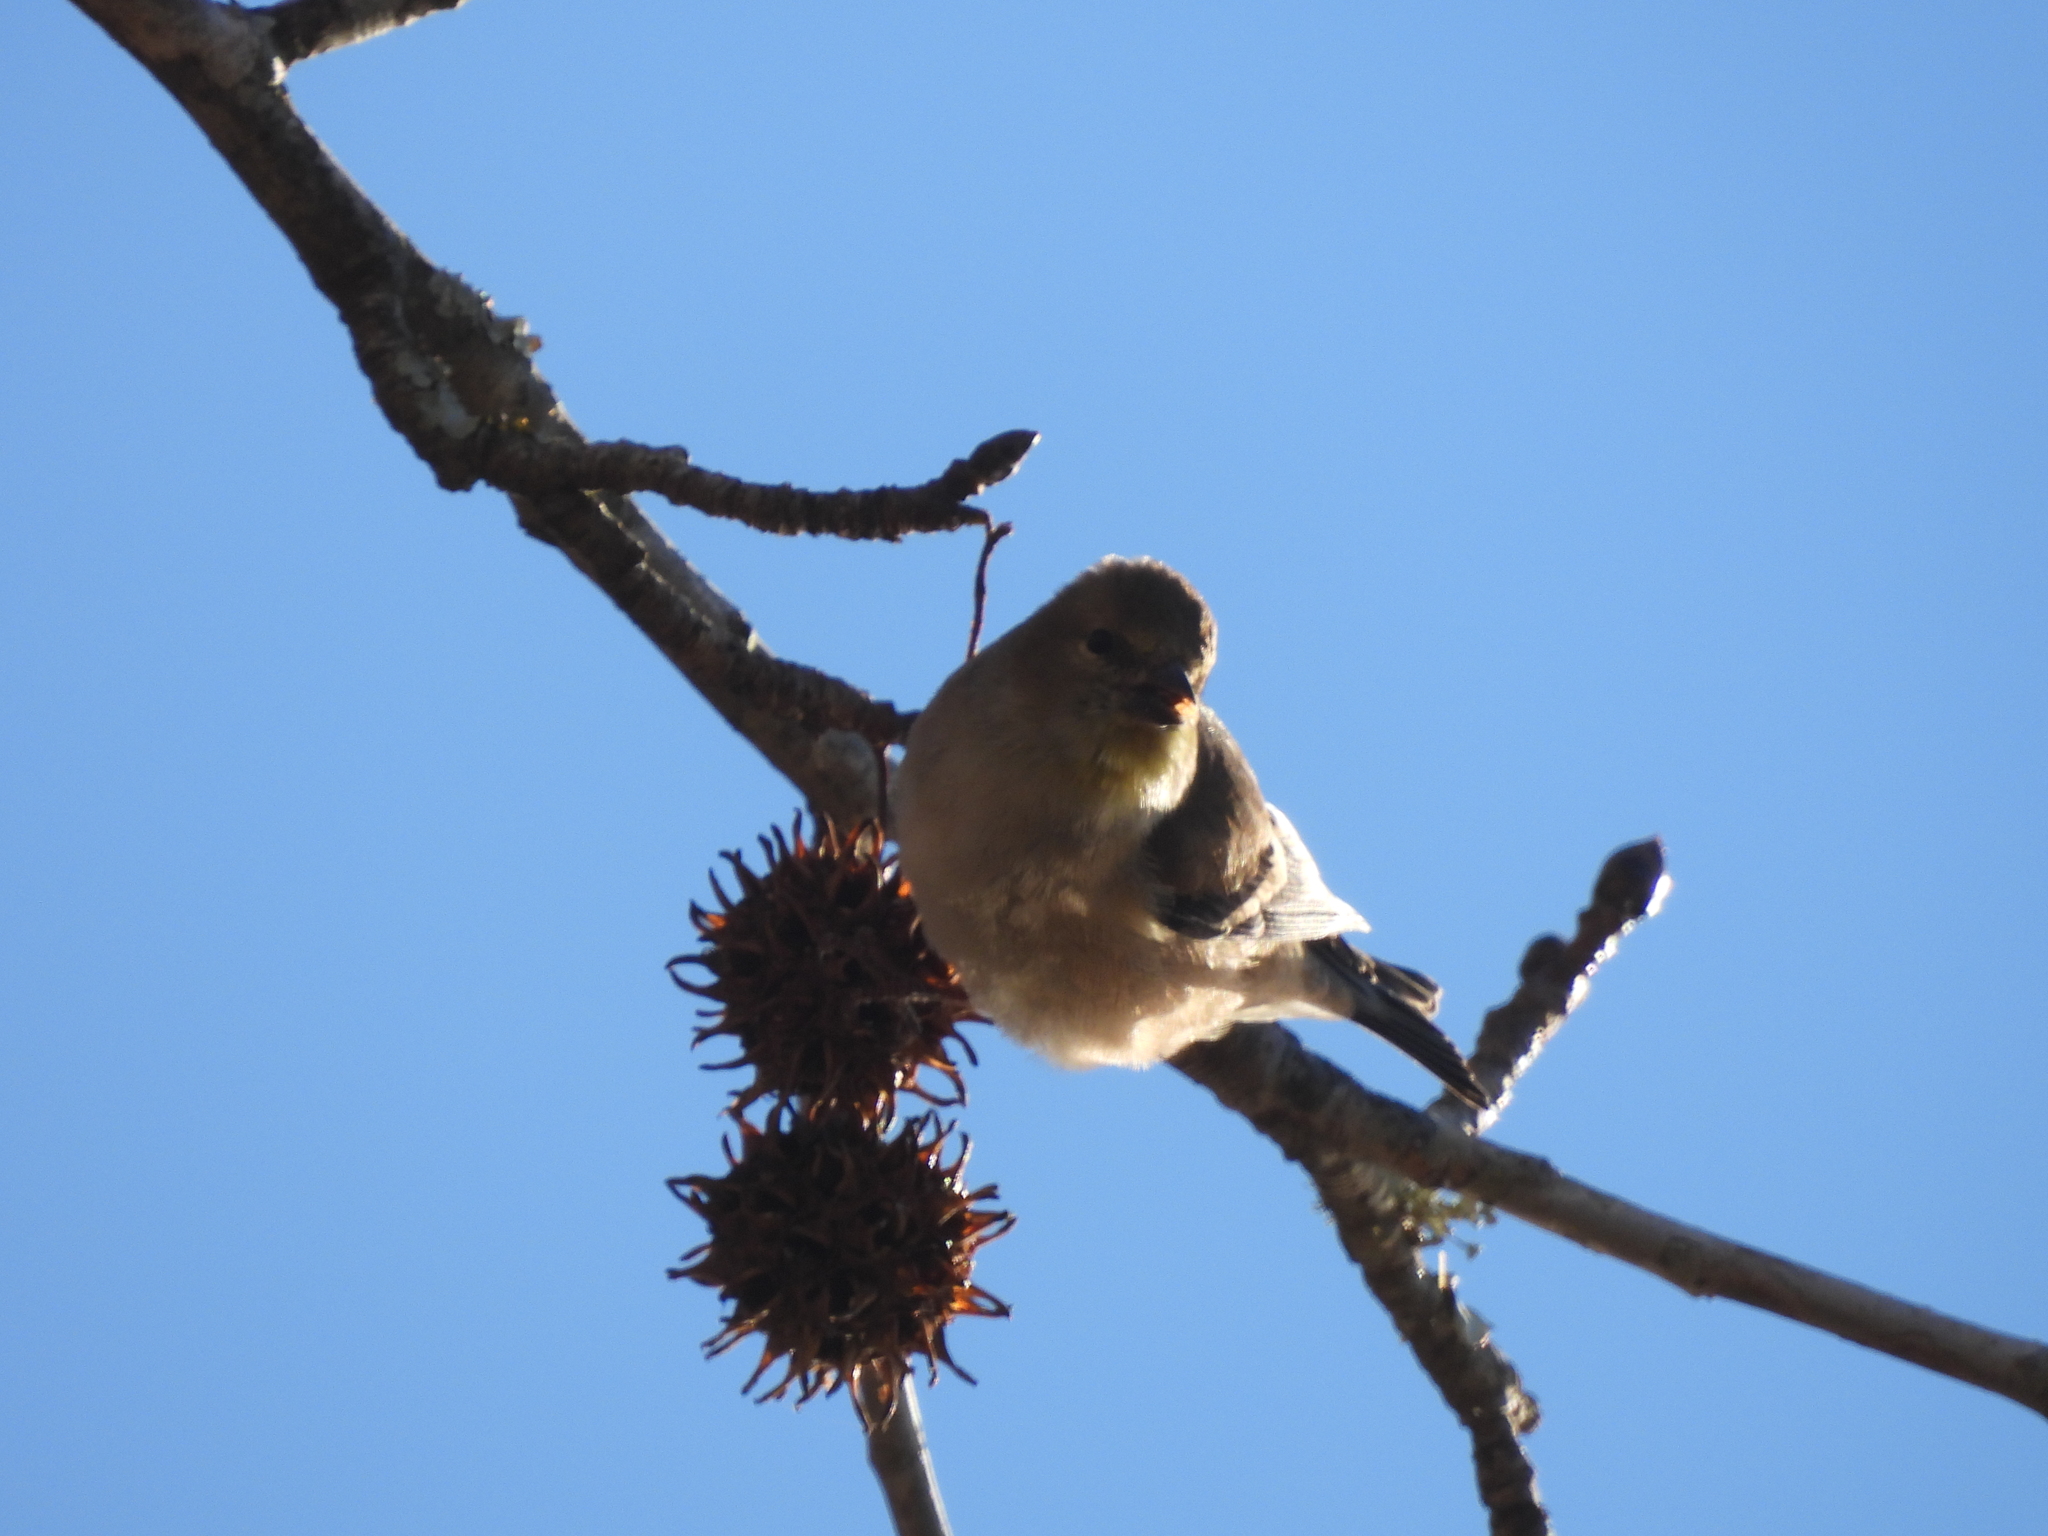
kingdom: Animalia
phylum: Chordata
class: Aves
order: Passeriformes
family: Fringillidae
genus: Spinus
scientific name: Spinus tristis
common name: American goldfinch
